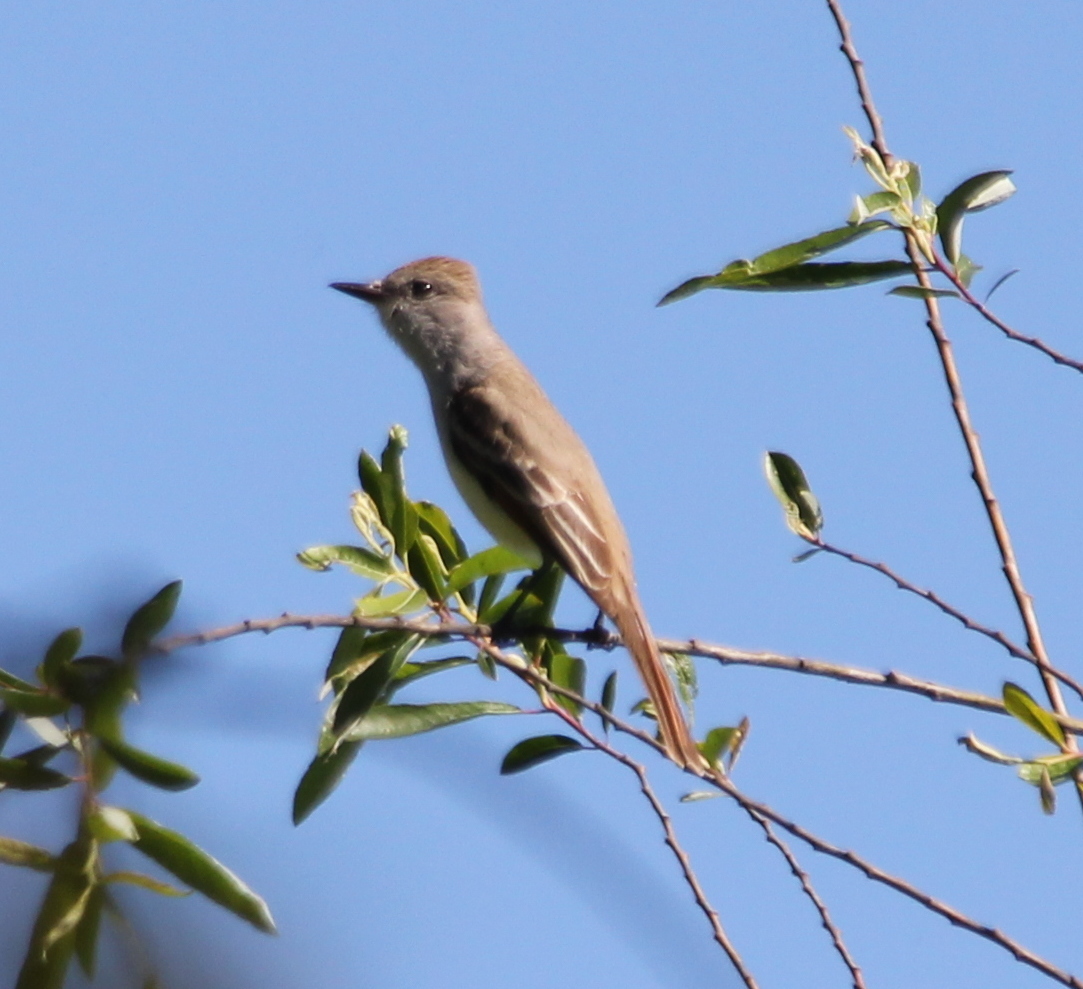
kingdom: Animalia
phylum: Chordata
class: Aves
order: Passeriformes
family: Tyrannidae
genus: Myiarchus
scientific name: Myiarchus cinerascens
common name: Ash-throated flycatcher
